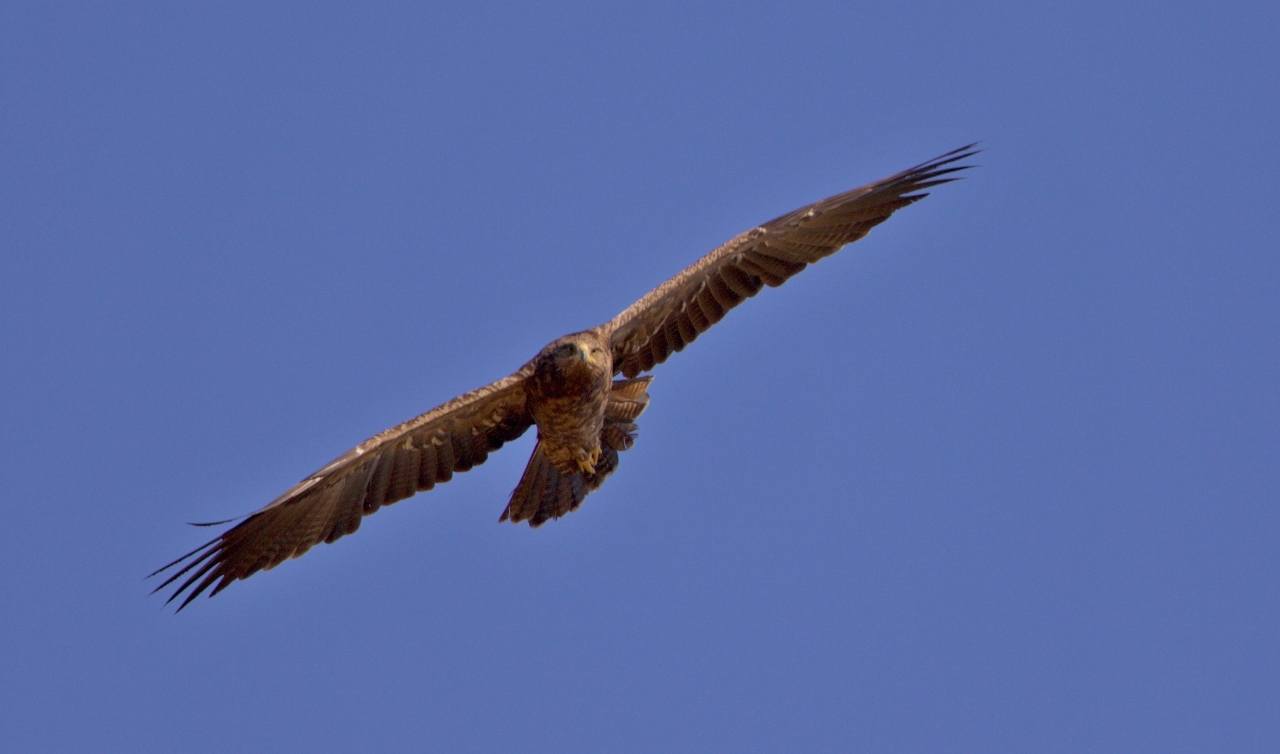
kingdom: Animalia
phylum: Chordata
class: Aves
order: Accipitriformes
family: Accipitridae
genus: Aquila
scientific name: Aquila pomarina
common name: Lesser spotted eagle
